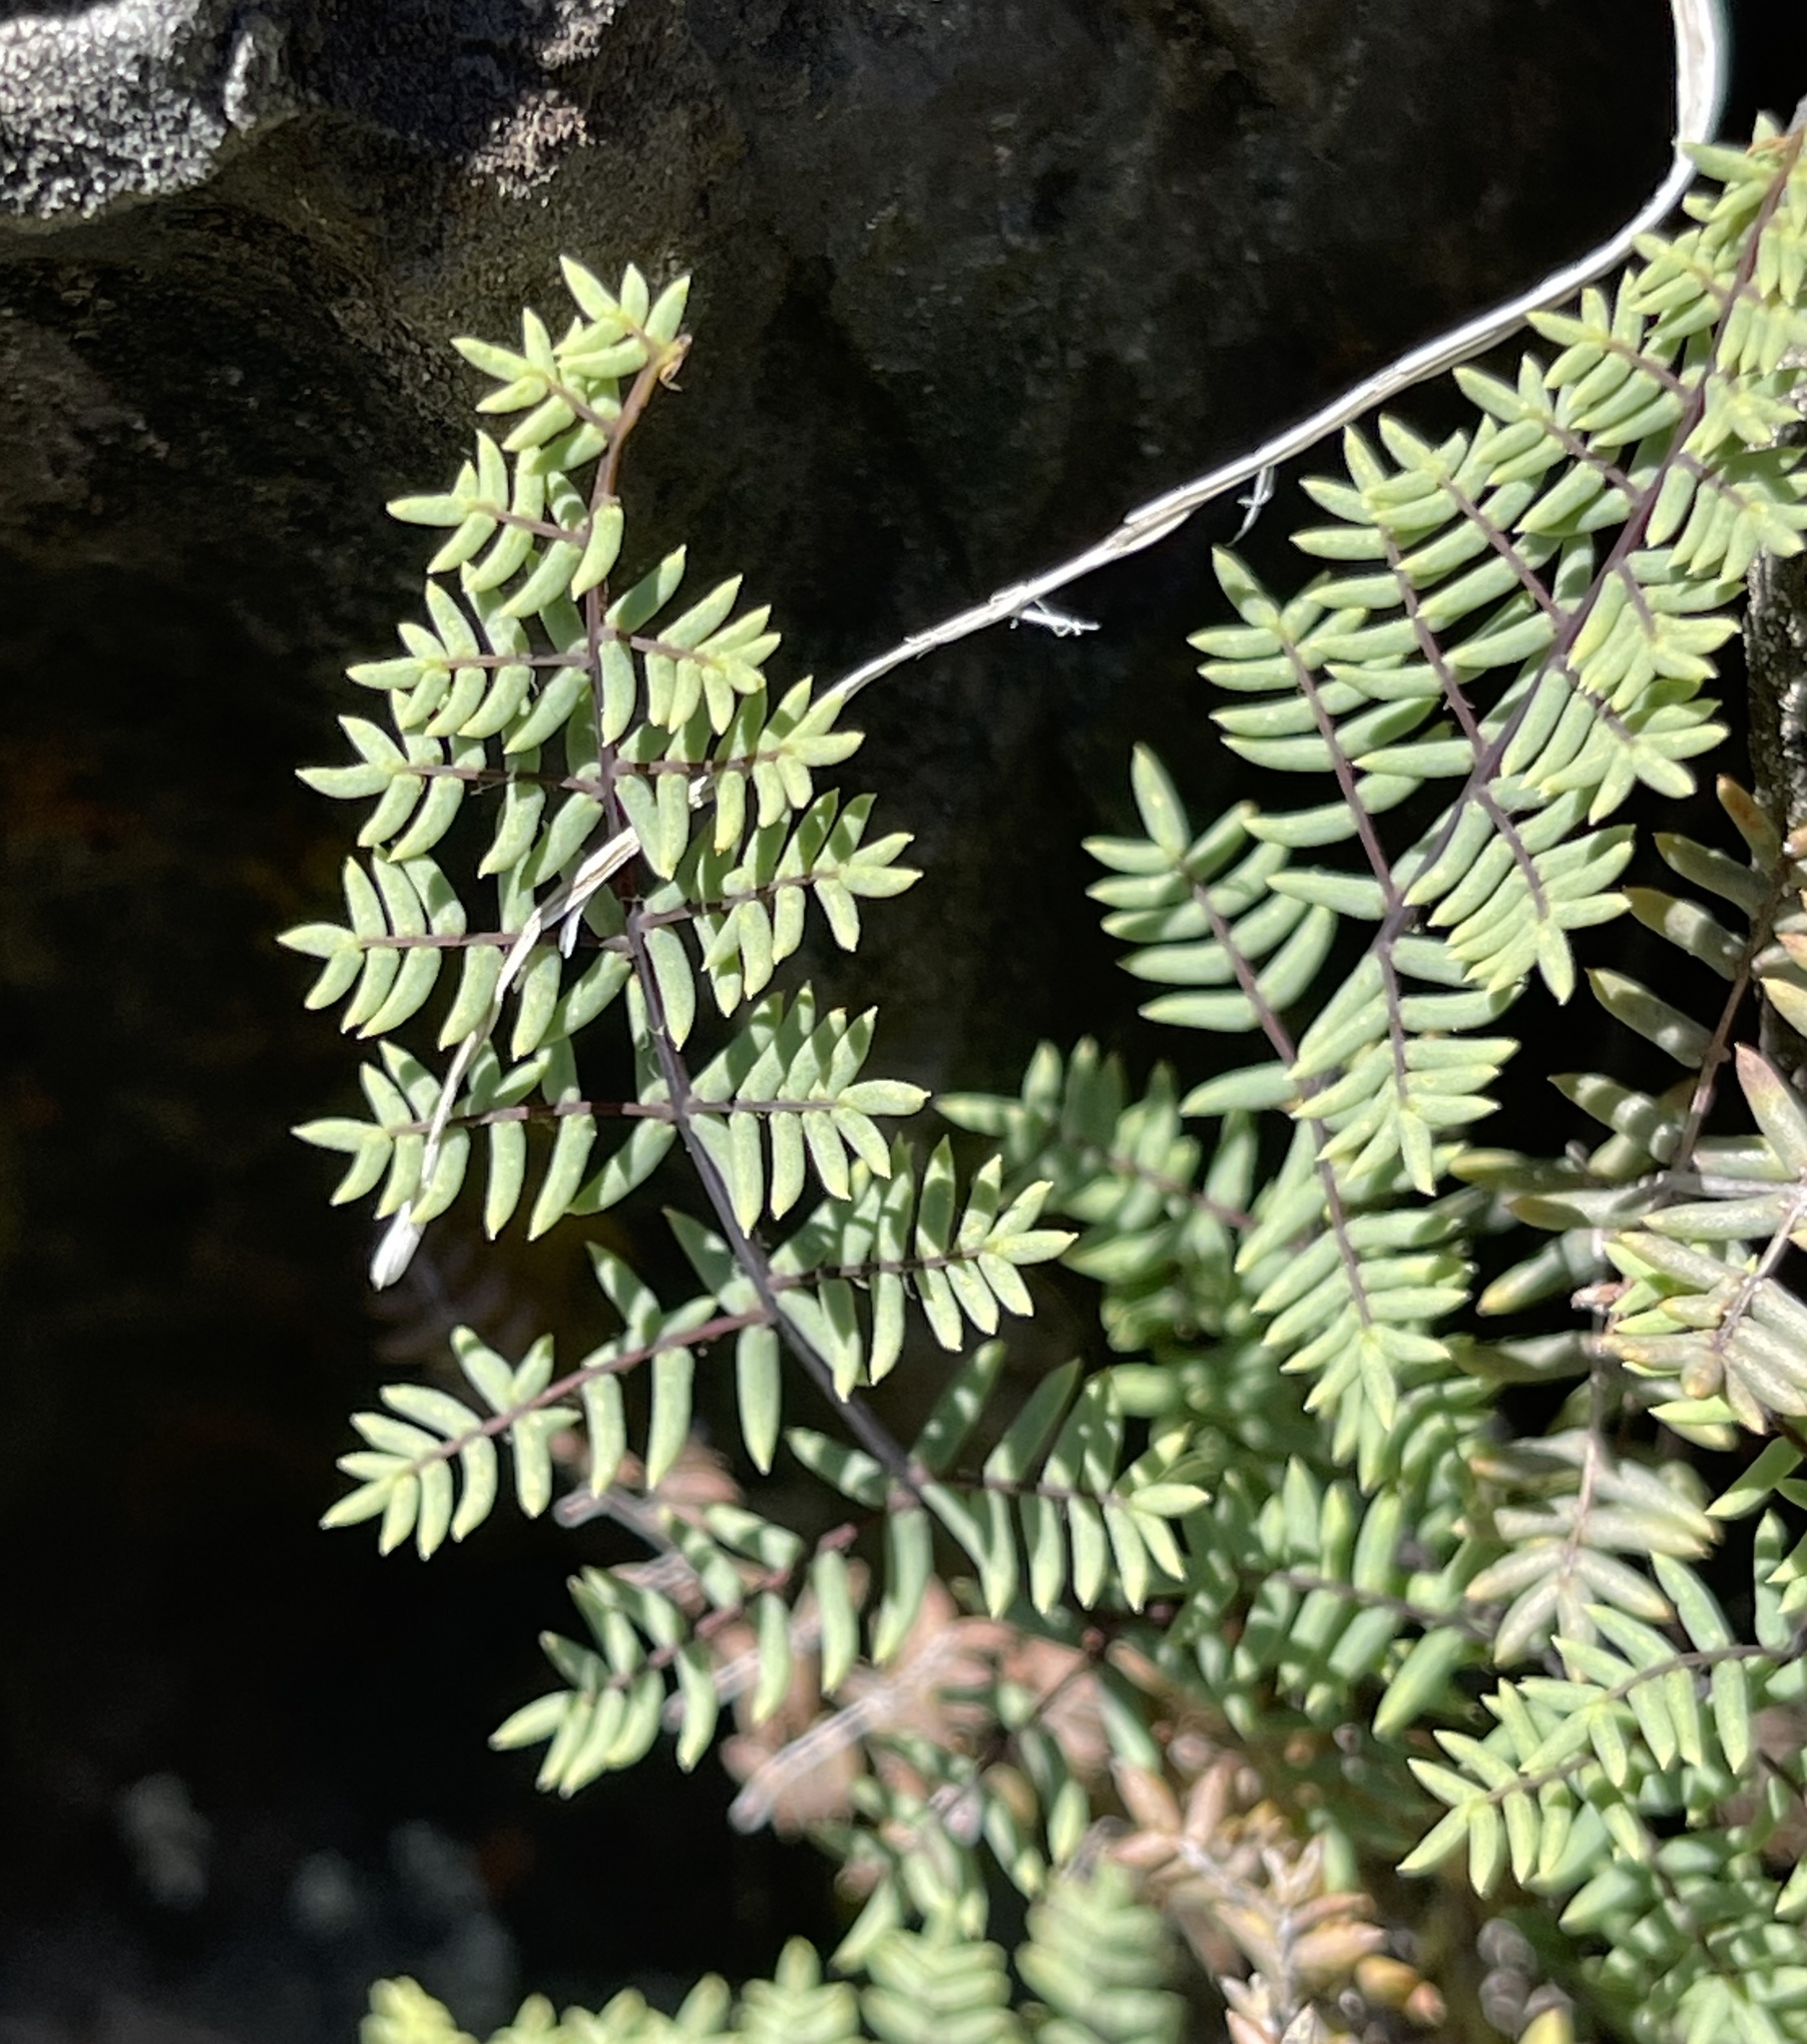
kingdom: Plantae
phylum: Tracheophyta
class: Polypodiopsida
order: Polypodiales
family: Pteridaceae
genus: Pellaea
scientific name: Pellaea mucronata
